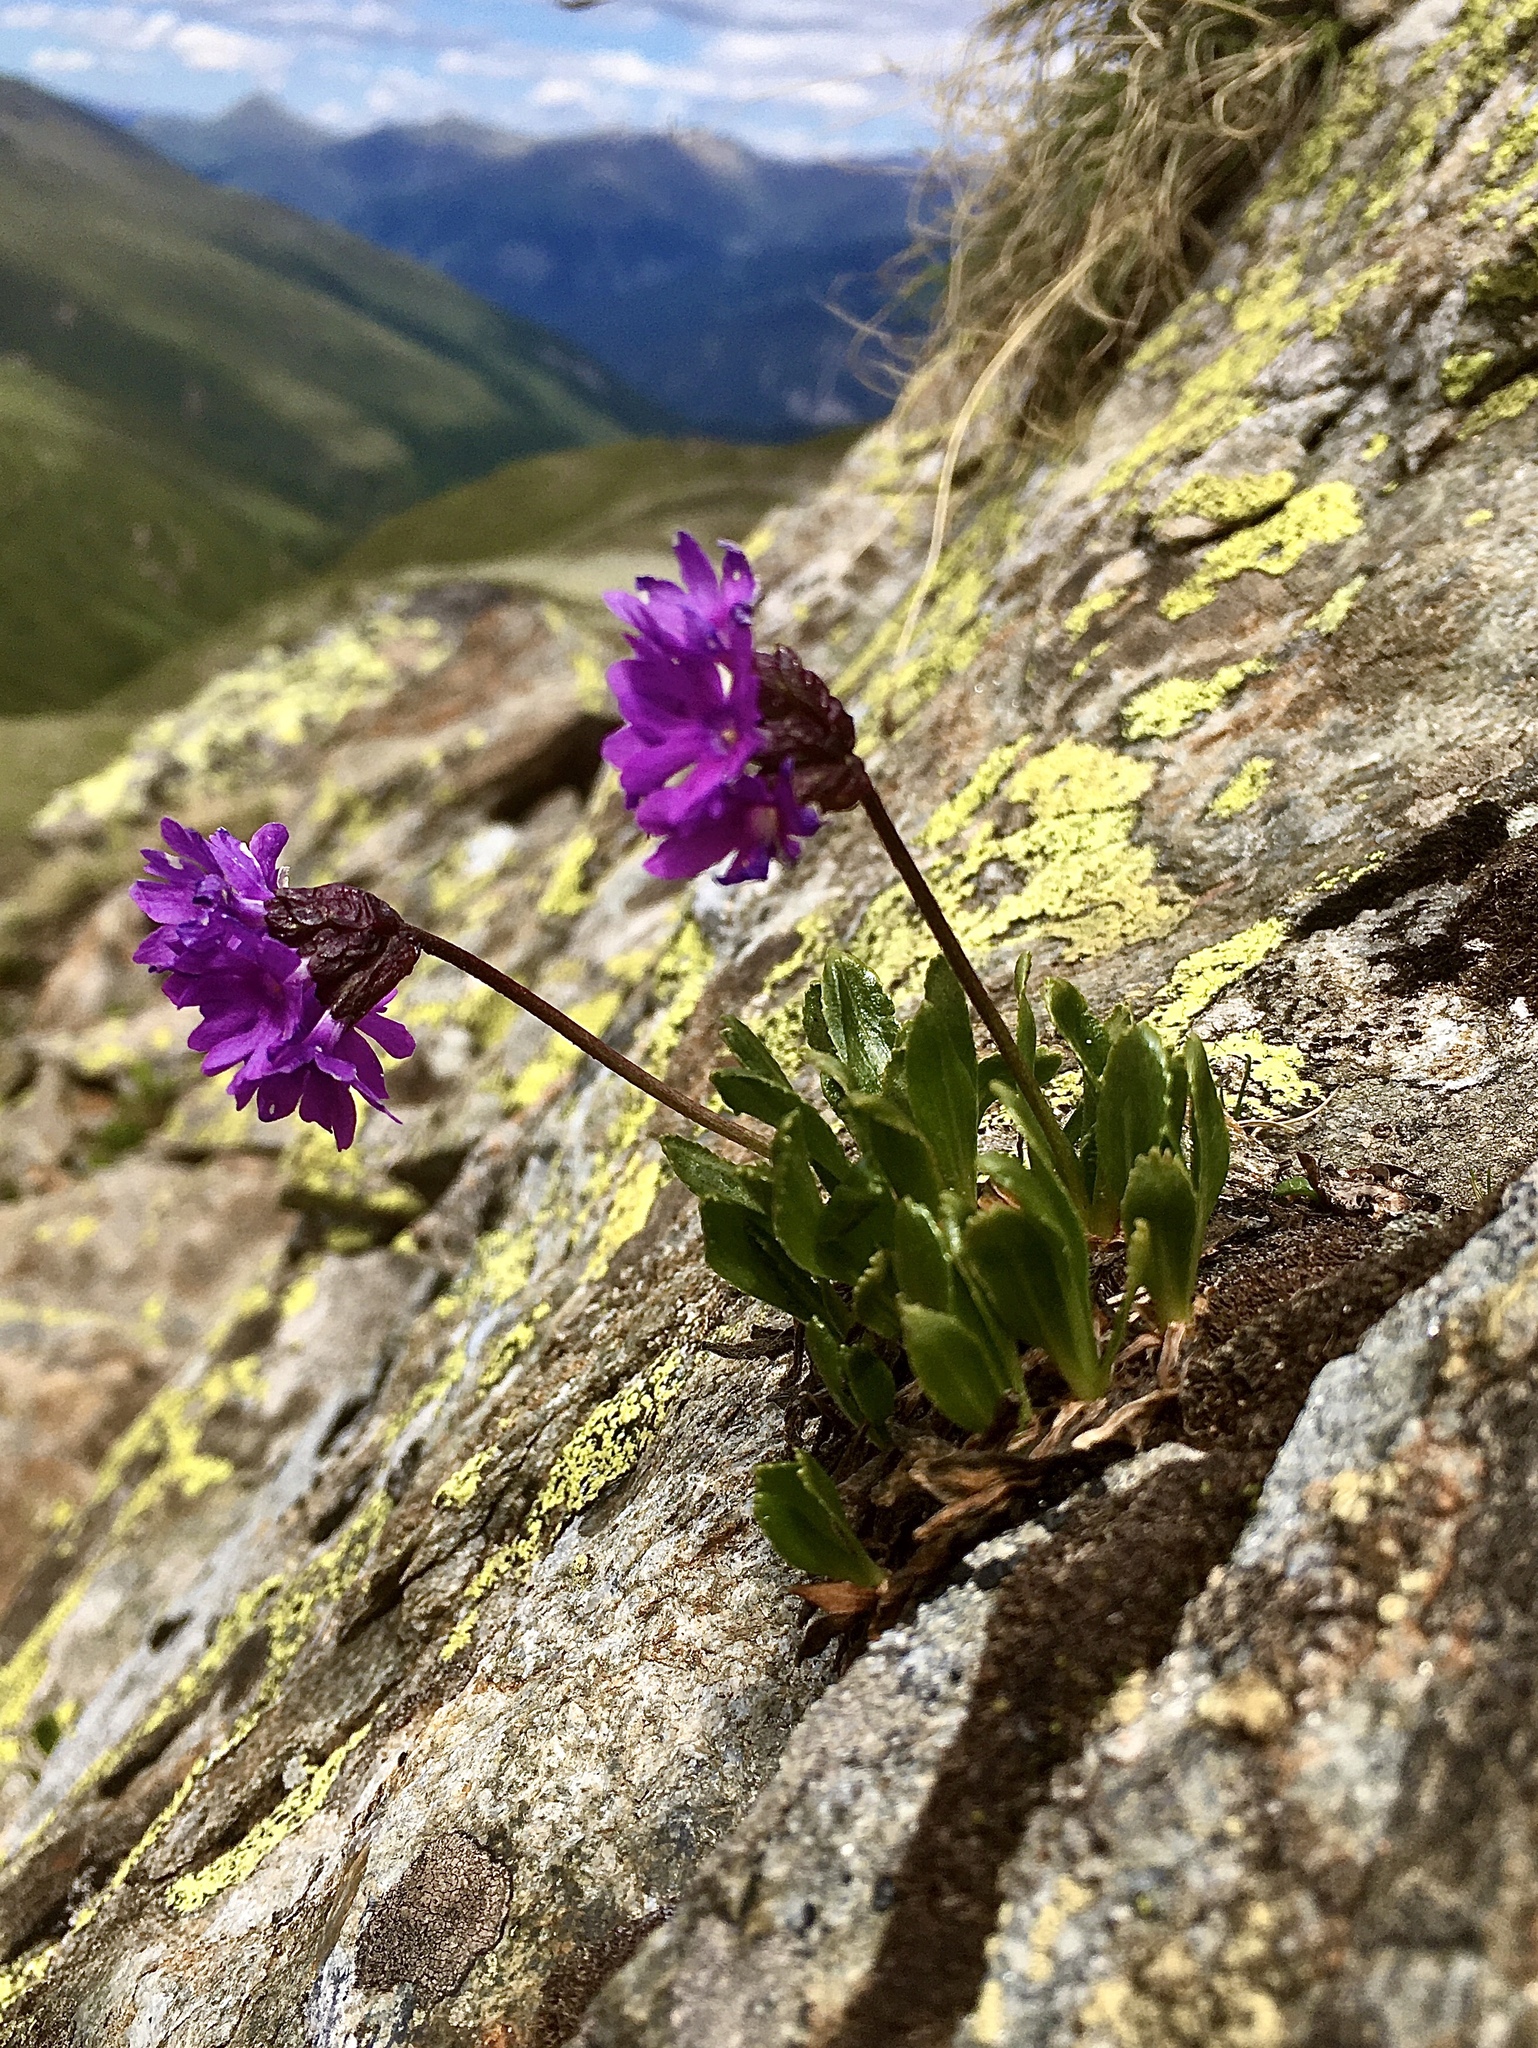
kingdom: Plantae
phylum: Tracheophyta
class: Magnoliopsida
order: Ericales
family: Primulaceae
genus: Primula
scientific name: Primula glutinosa
